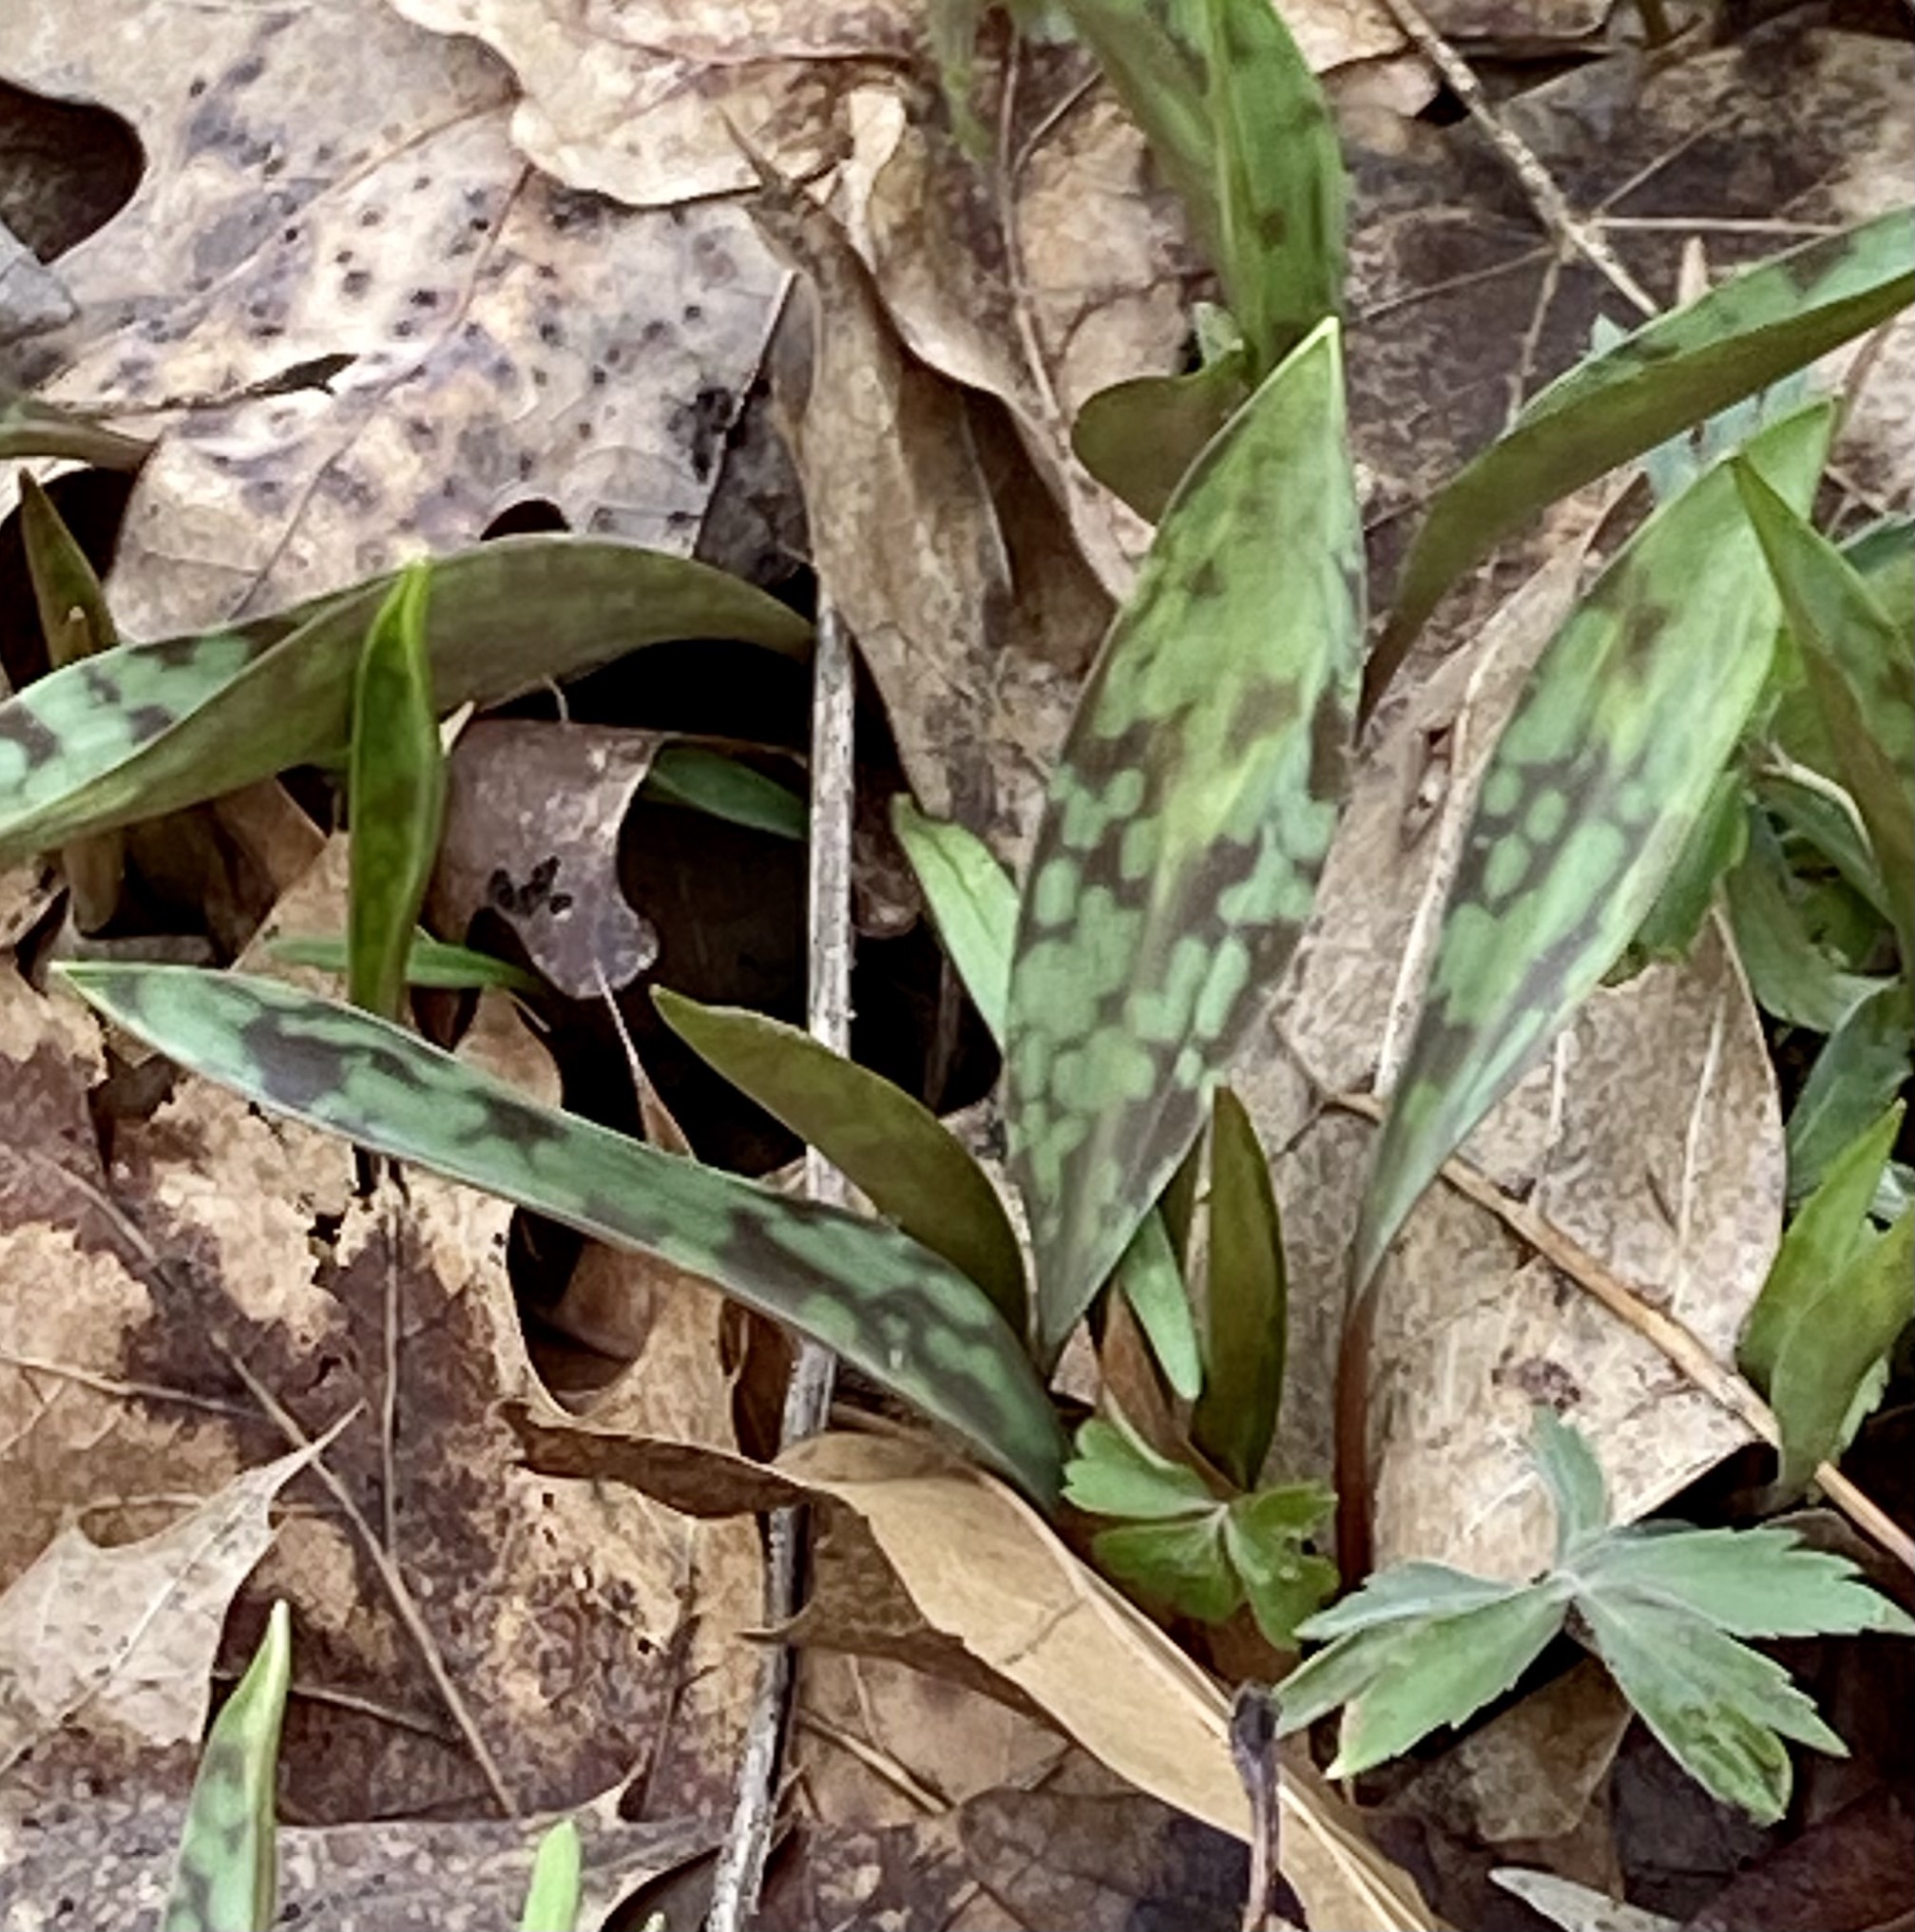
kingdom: Plantae
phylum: Tracheophyta
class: Liliopsida
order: Liliales
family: Liliaceae
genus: Erythronium
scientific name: Erythronium albidum
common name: White trout-lily
